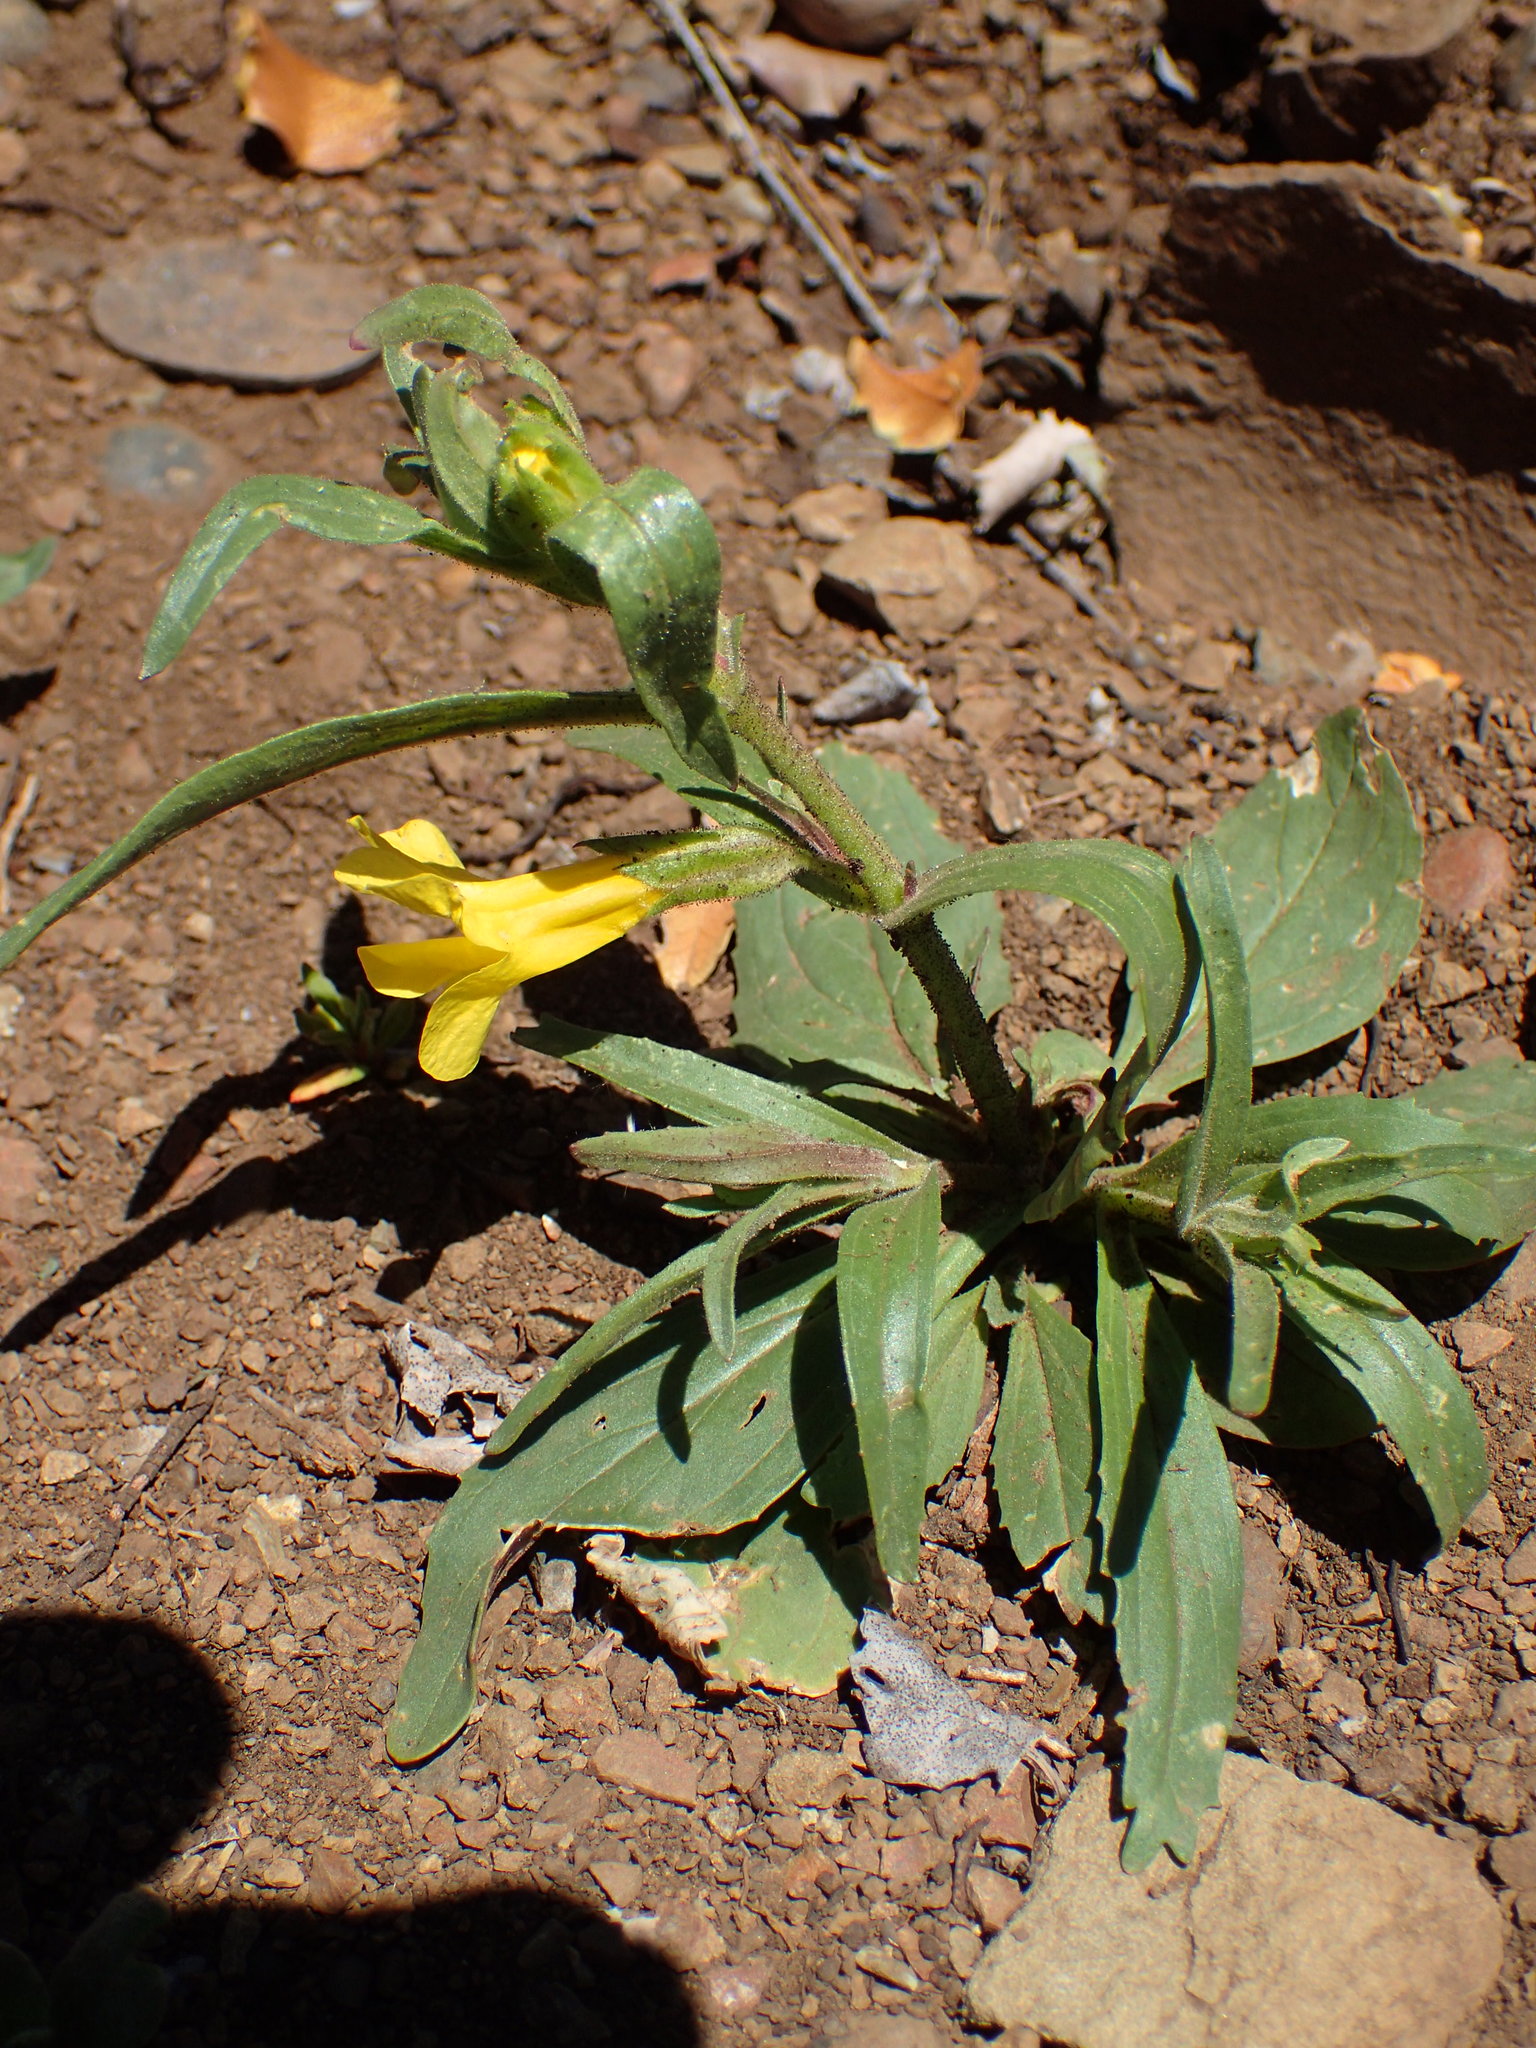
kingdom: Plantae
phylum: Tracheophyta
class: Magnoliopsida
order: Lamiales
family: Phrymaceae
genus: Diplacus
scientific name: Diplacus brevipes
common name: Wide-throat yellow monkey-flower
